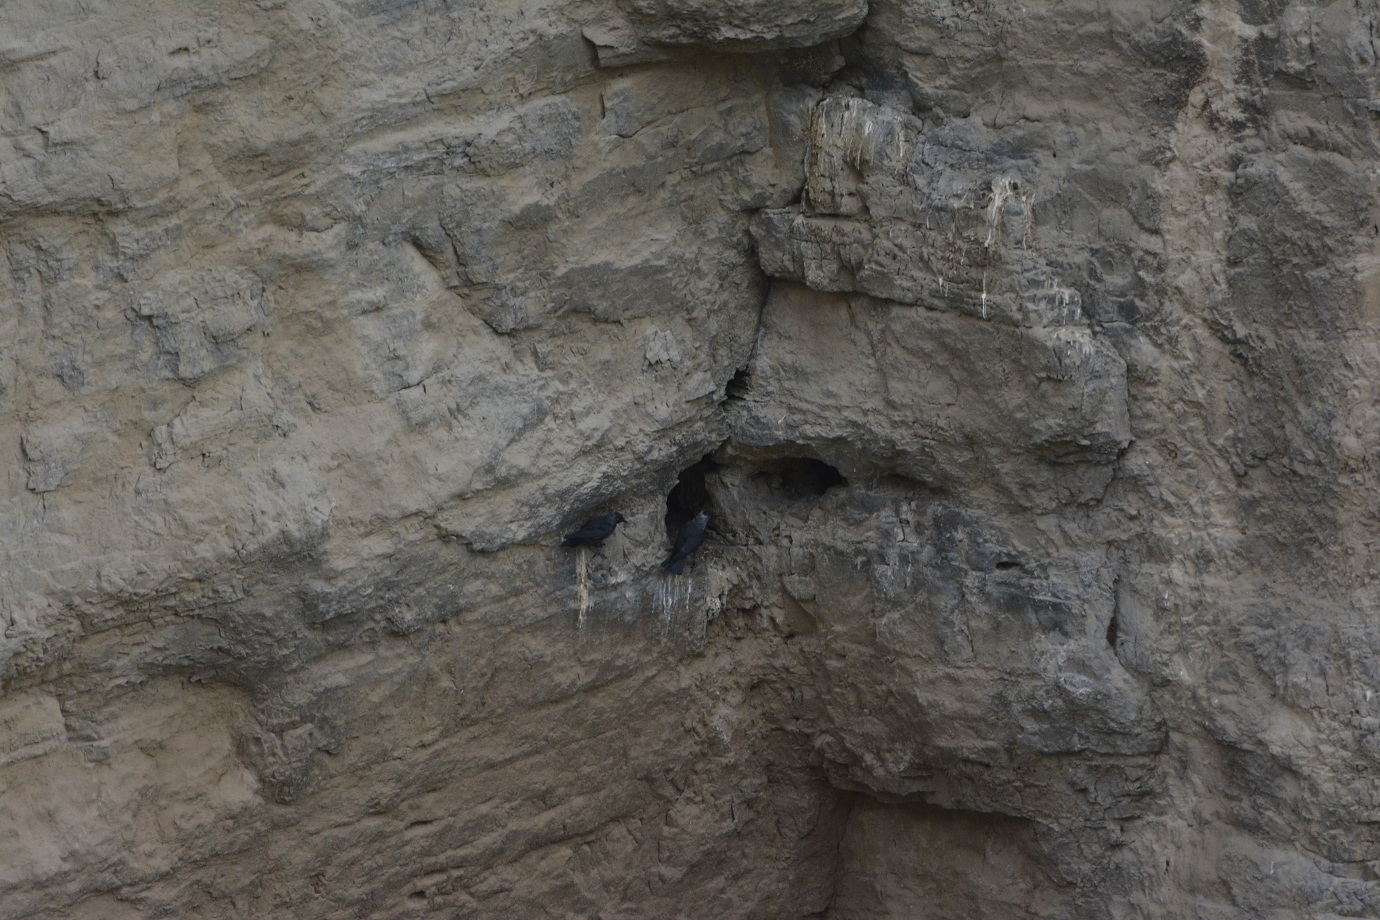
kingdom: Animalia
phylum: Chordata
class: Aves
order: Passeriformes
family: Corvidae
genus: Coloeus
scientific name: Coloeus monedula
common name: Western jackdaw
